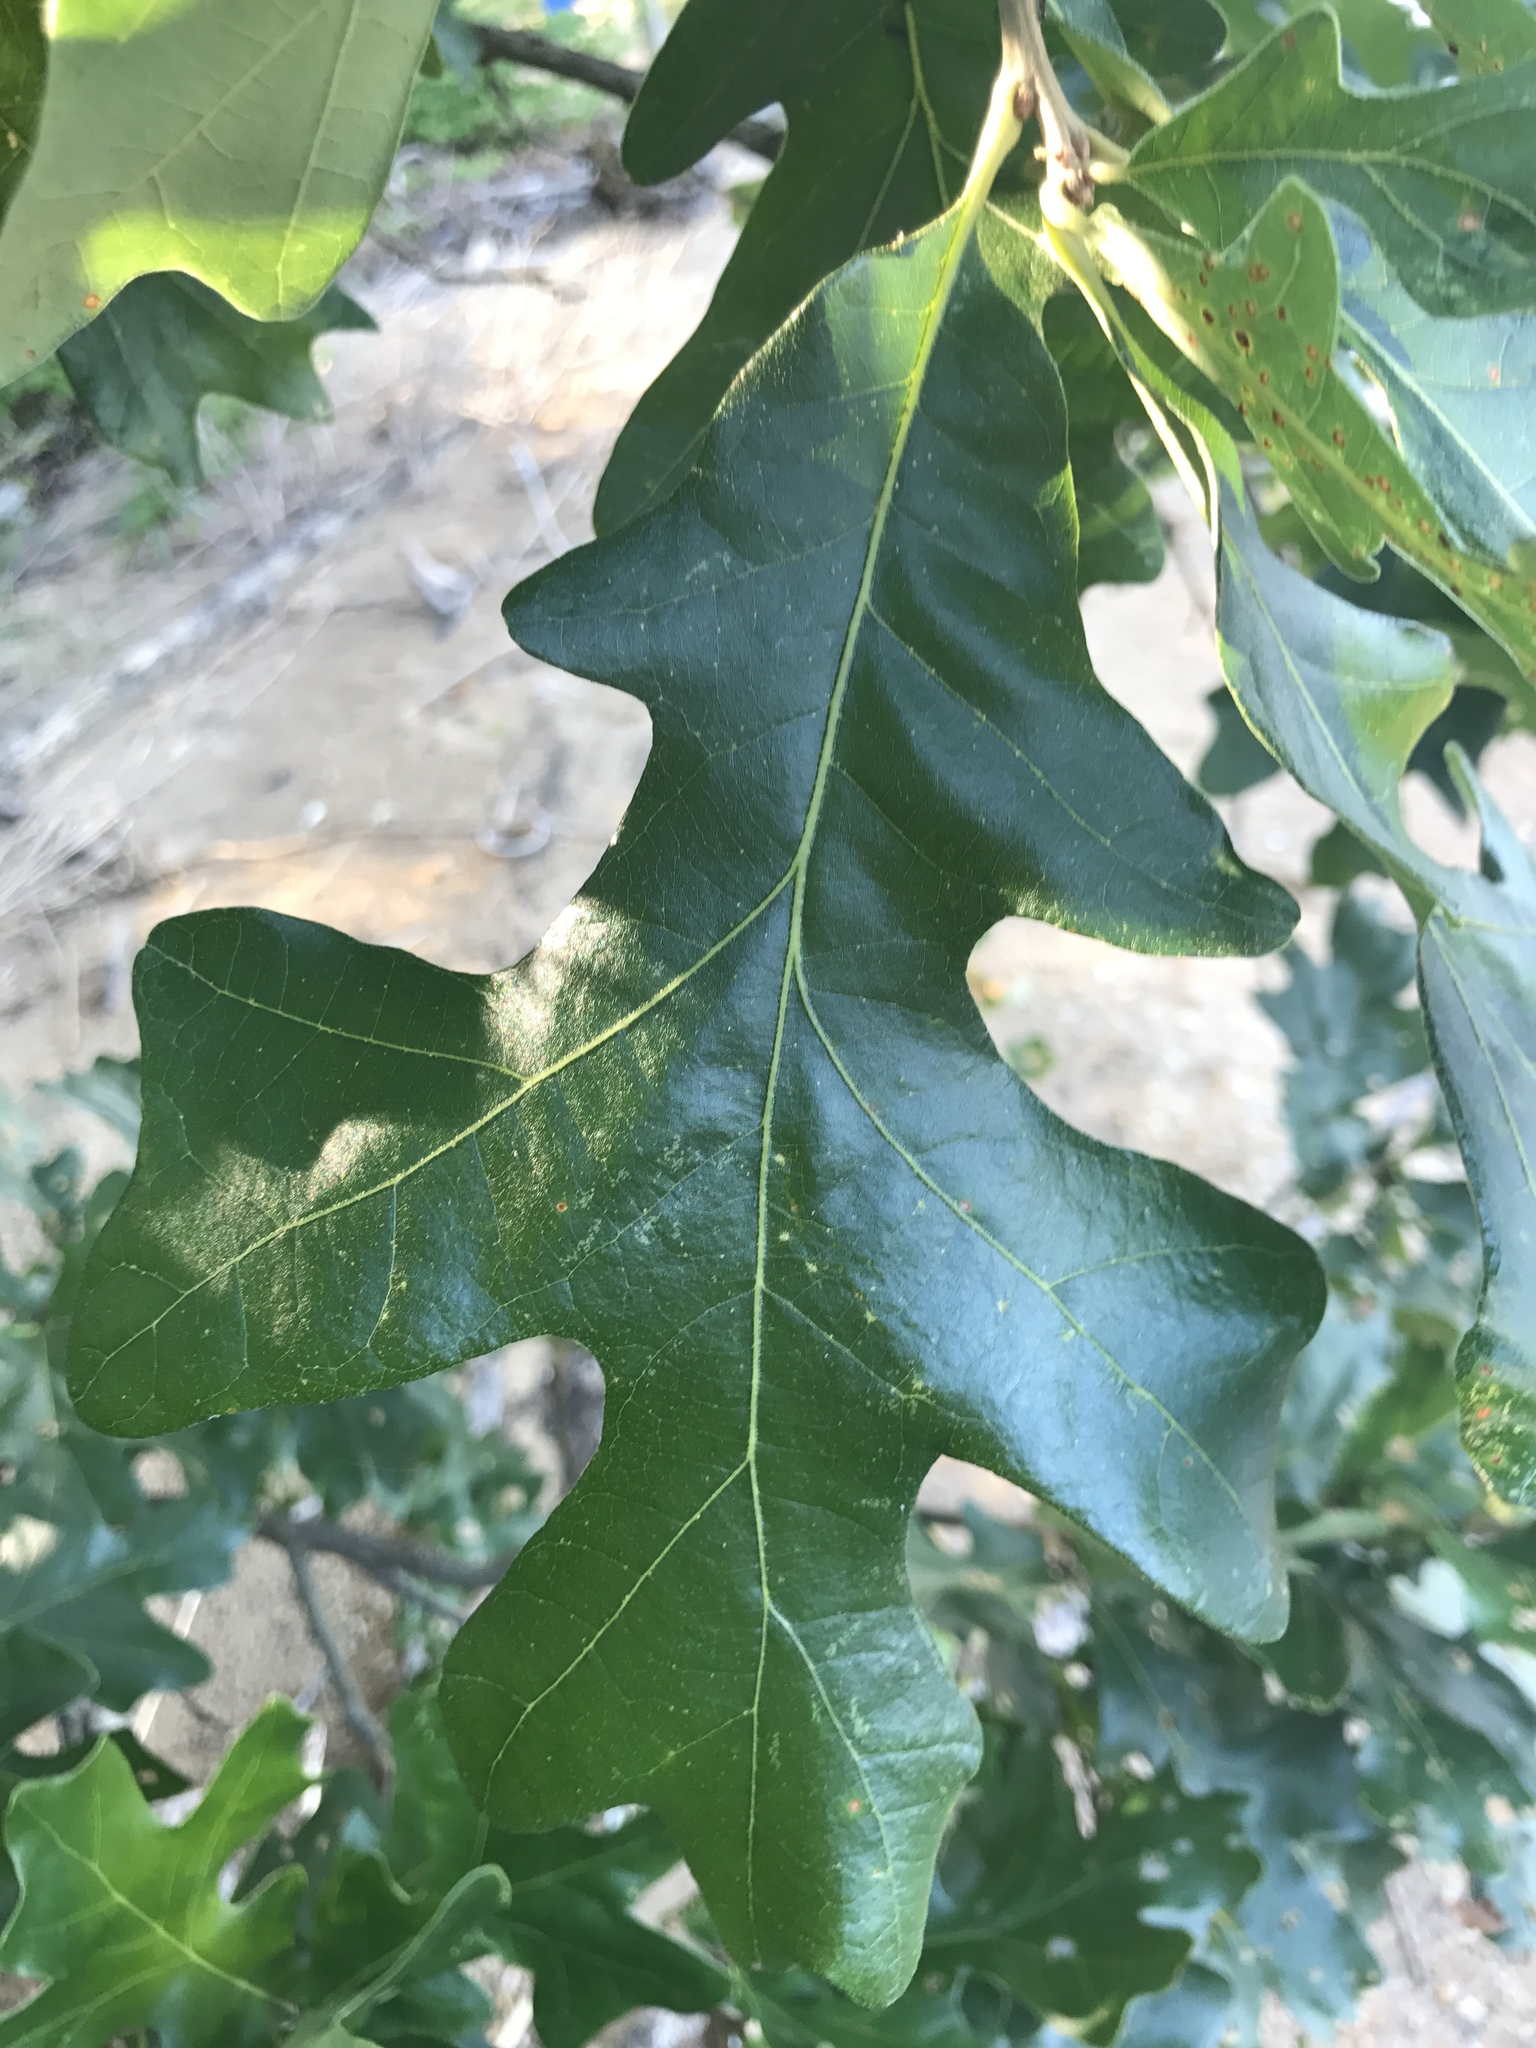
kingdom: Plantae
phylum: Tracheophyta
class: Magnoliopsida
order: Fagales
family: Fagaceae
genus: Quercus
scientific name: Quercus stellata
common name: Post oak
